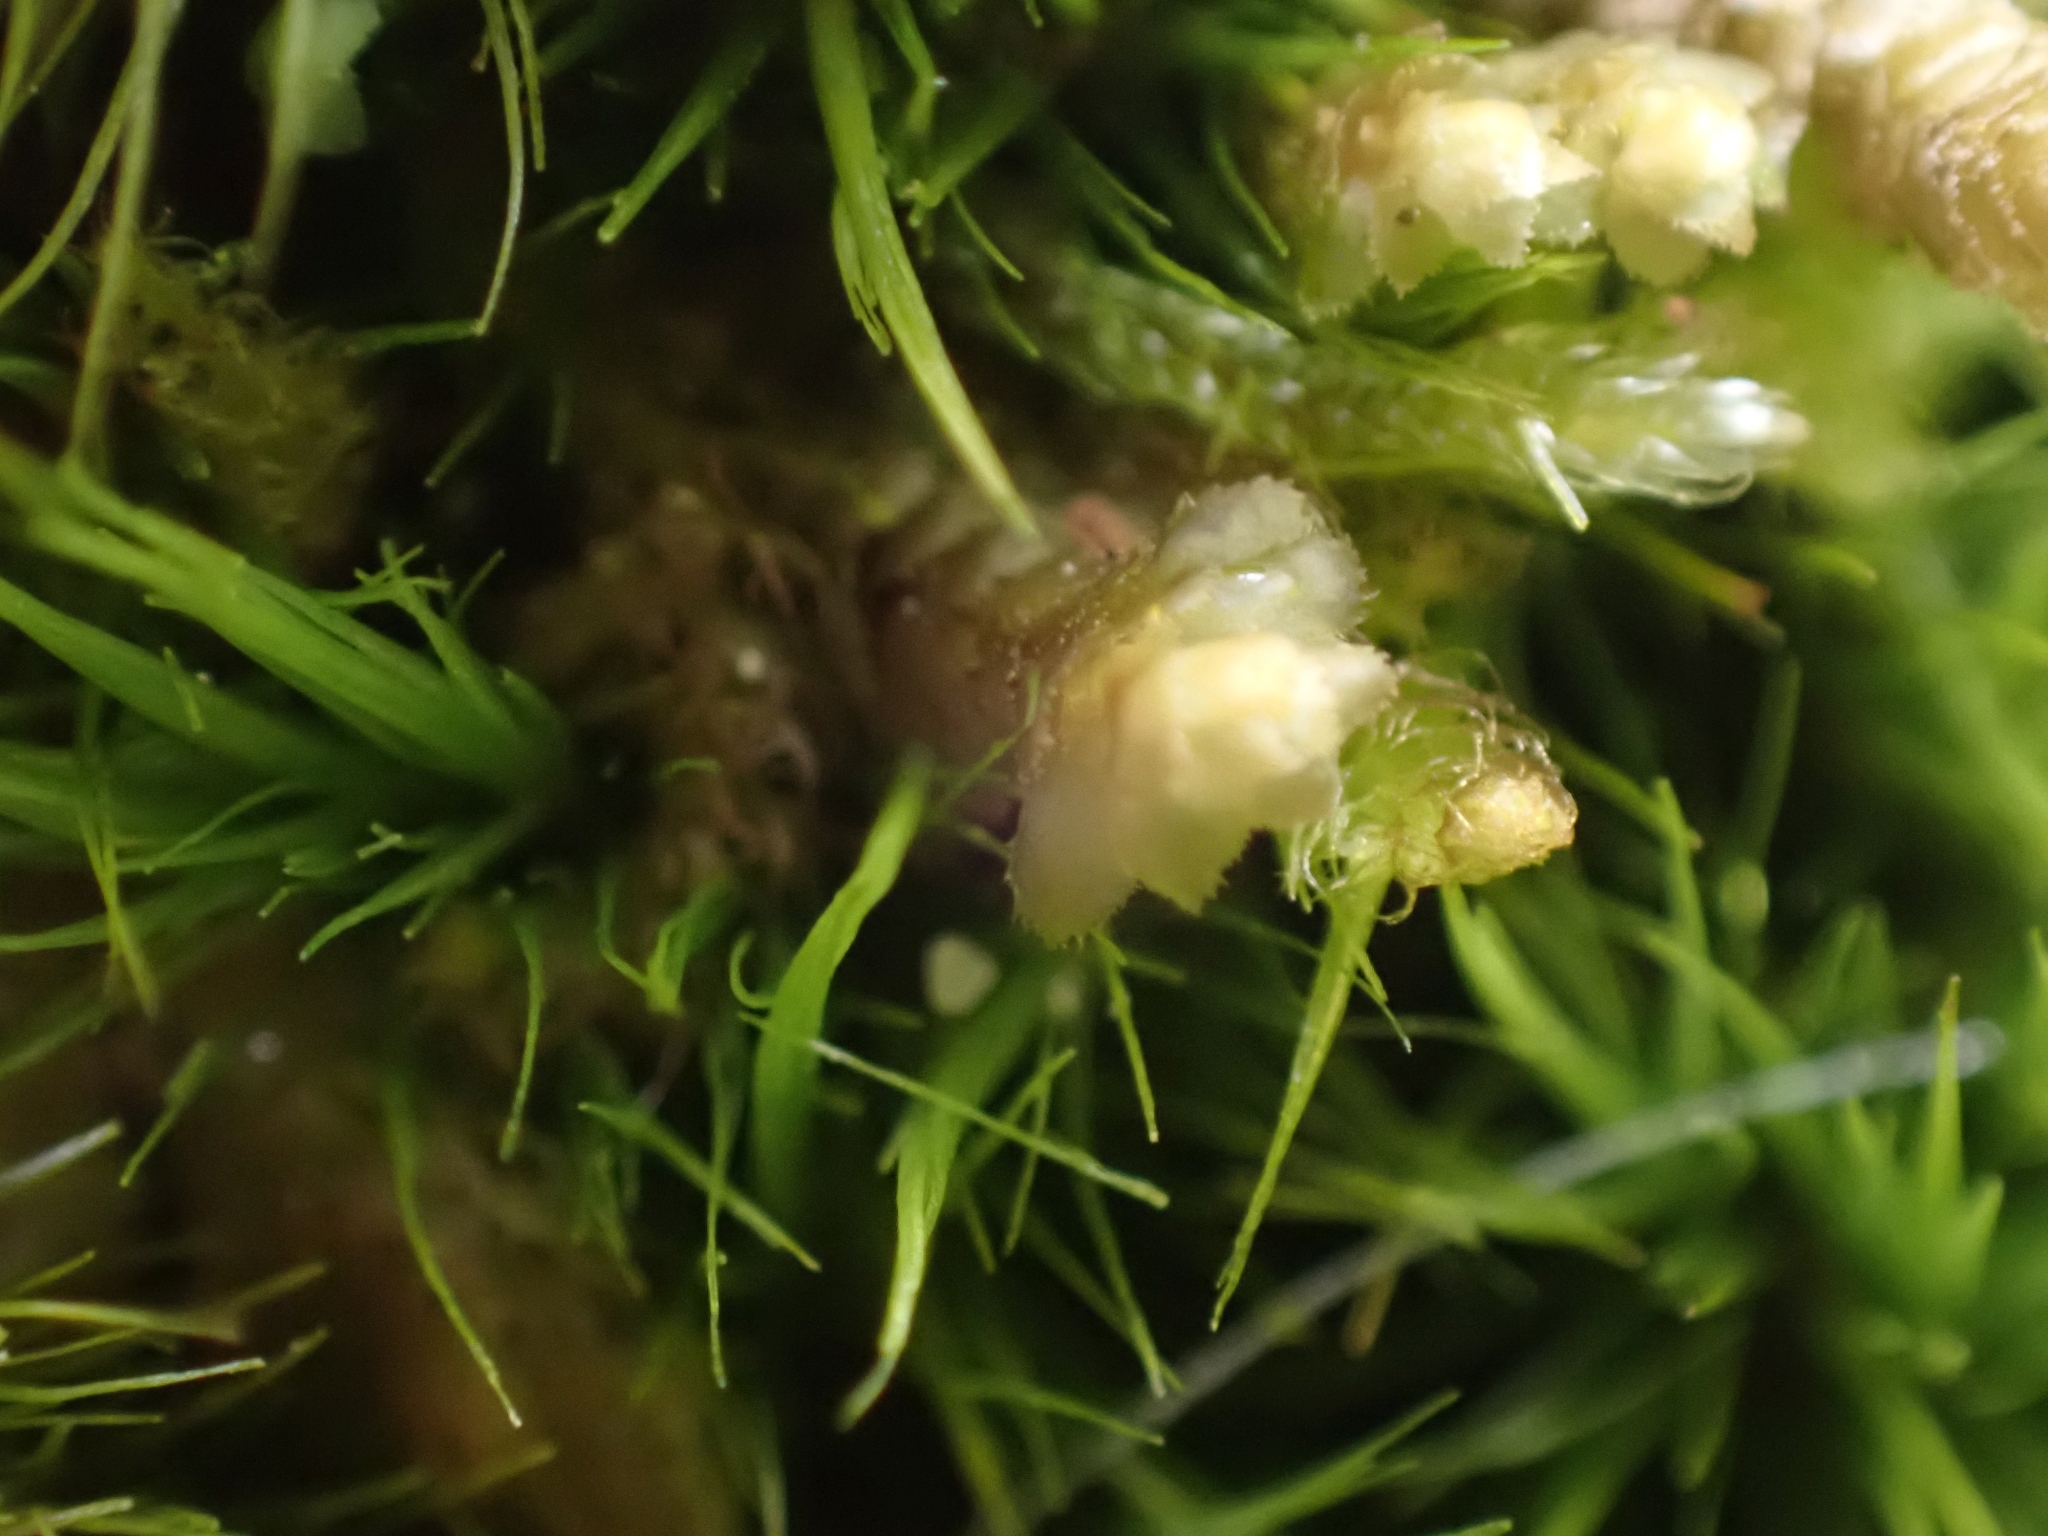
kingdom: Plantae
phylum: Marchantiophyta
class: Jungermanniopsida
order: Jungermanniales
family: Scapaniaceae
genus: Scapania
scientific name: Scapania bolanderi
